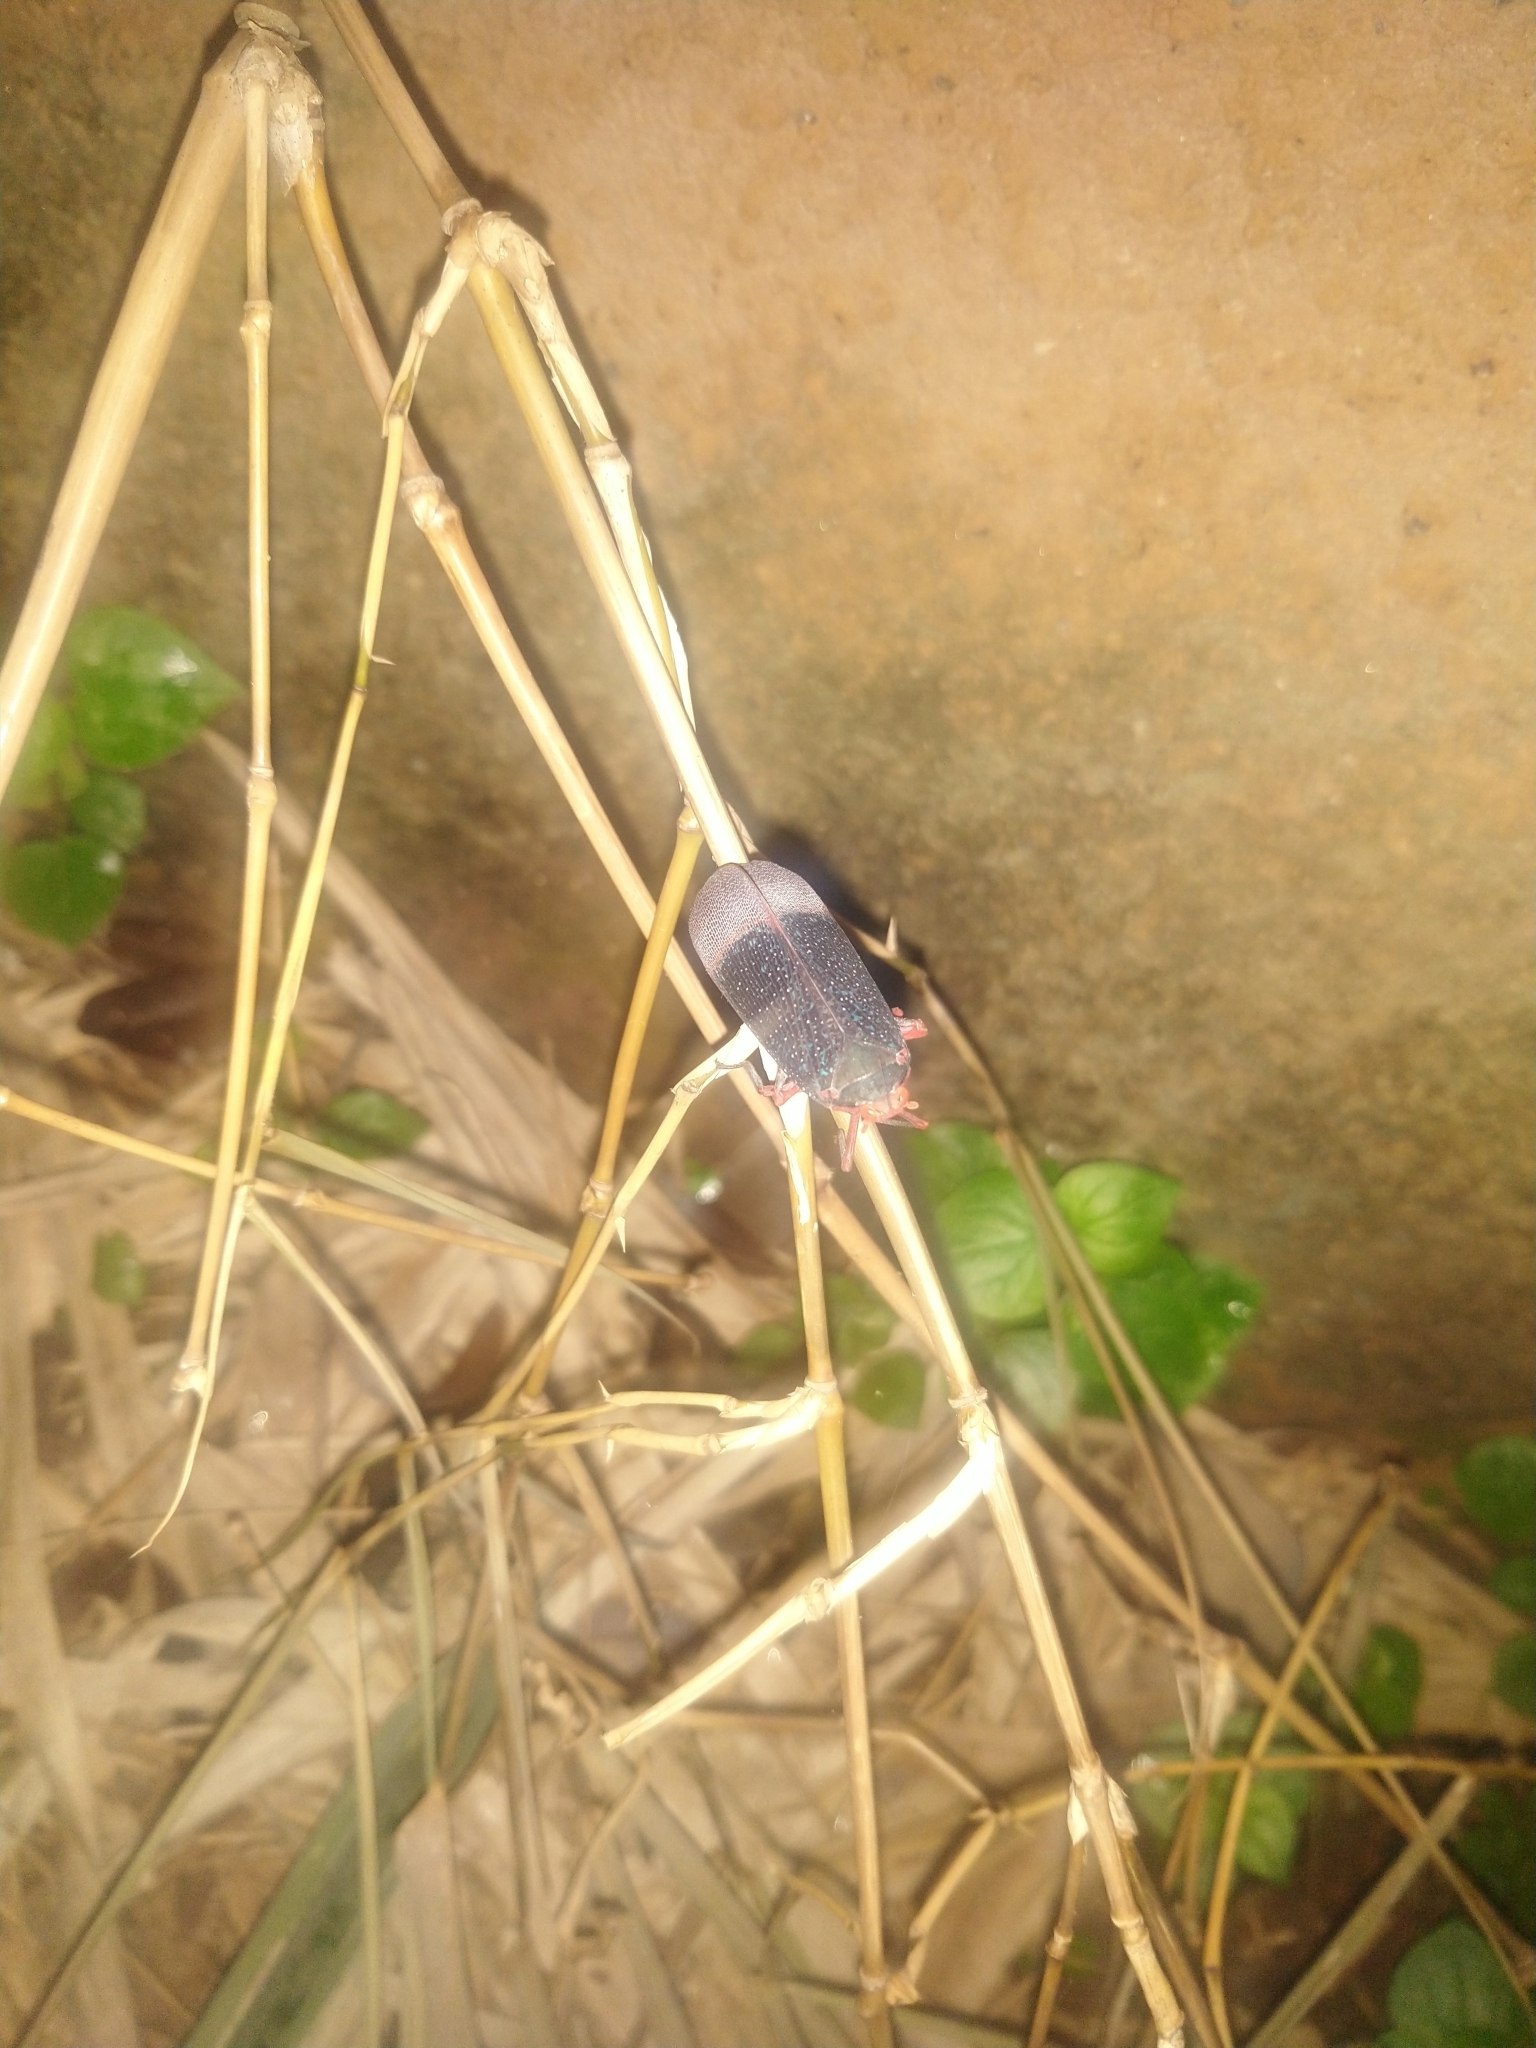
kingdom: Animalia
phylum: Arthropoda
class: Insecta
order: Hemiptera
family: Fulgoridae
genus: Kalidasa
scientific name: Kalidasa lanata
